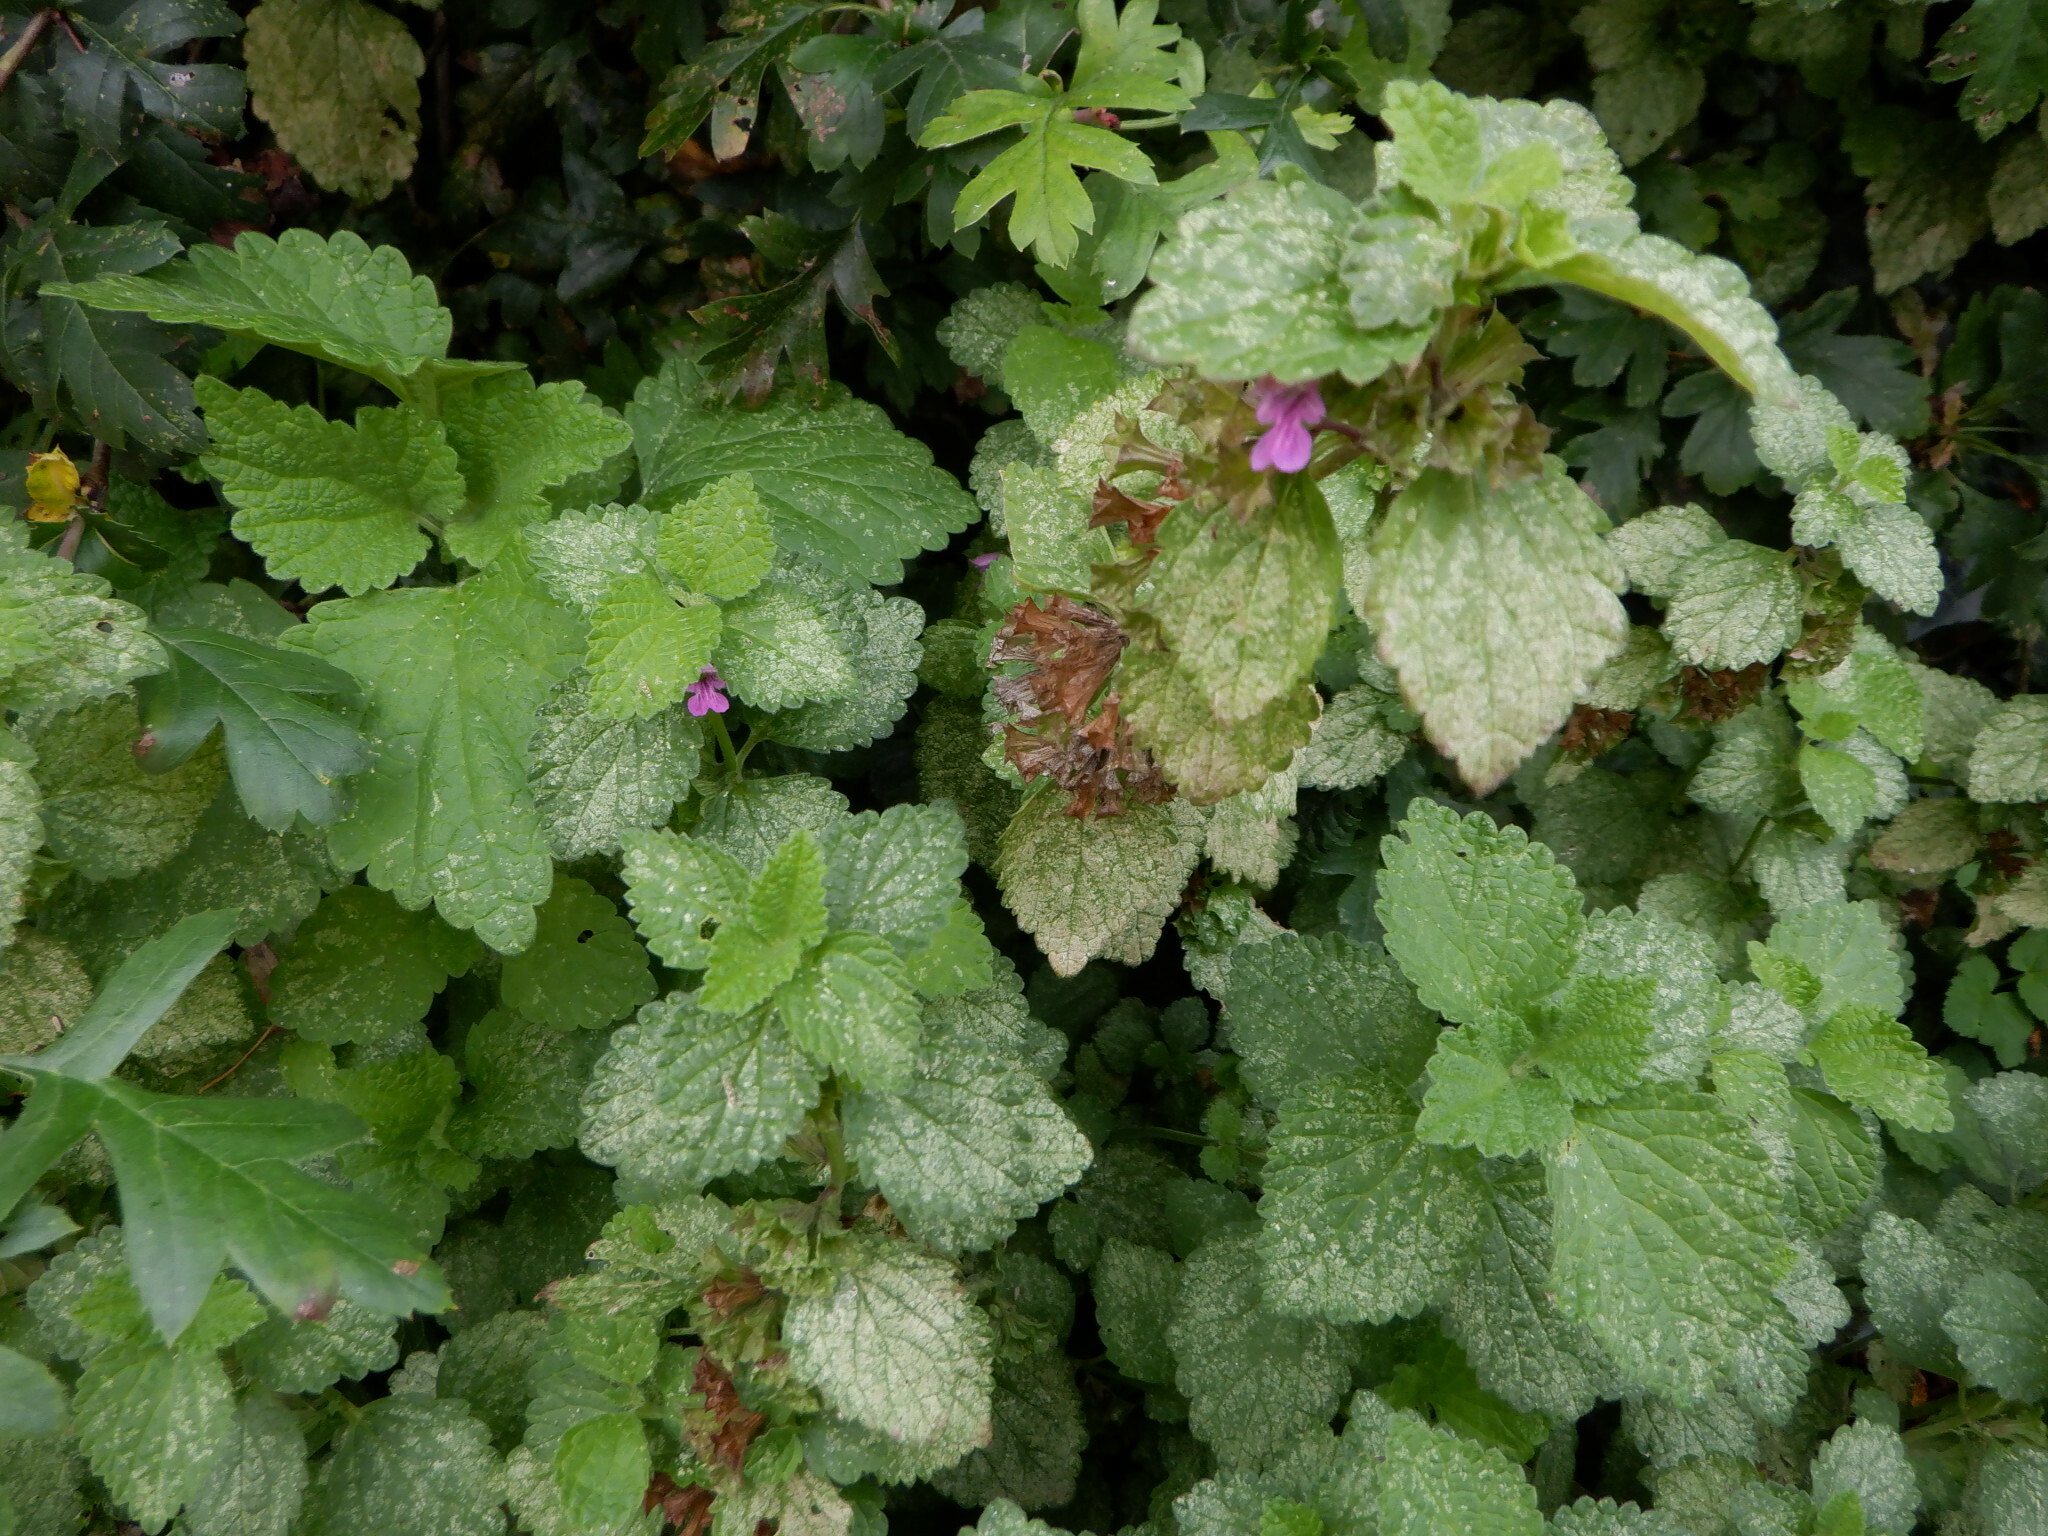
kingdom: Plantae
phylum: Tracheophyta
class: Magnoliopsida
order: Lamiales
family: Lamiaceae
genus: Ballota
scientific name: Ballota nigra
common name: Black horehound
